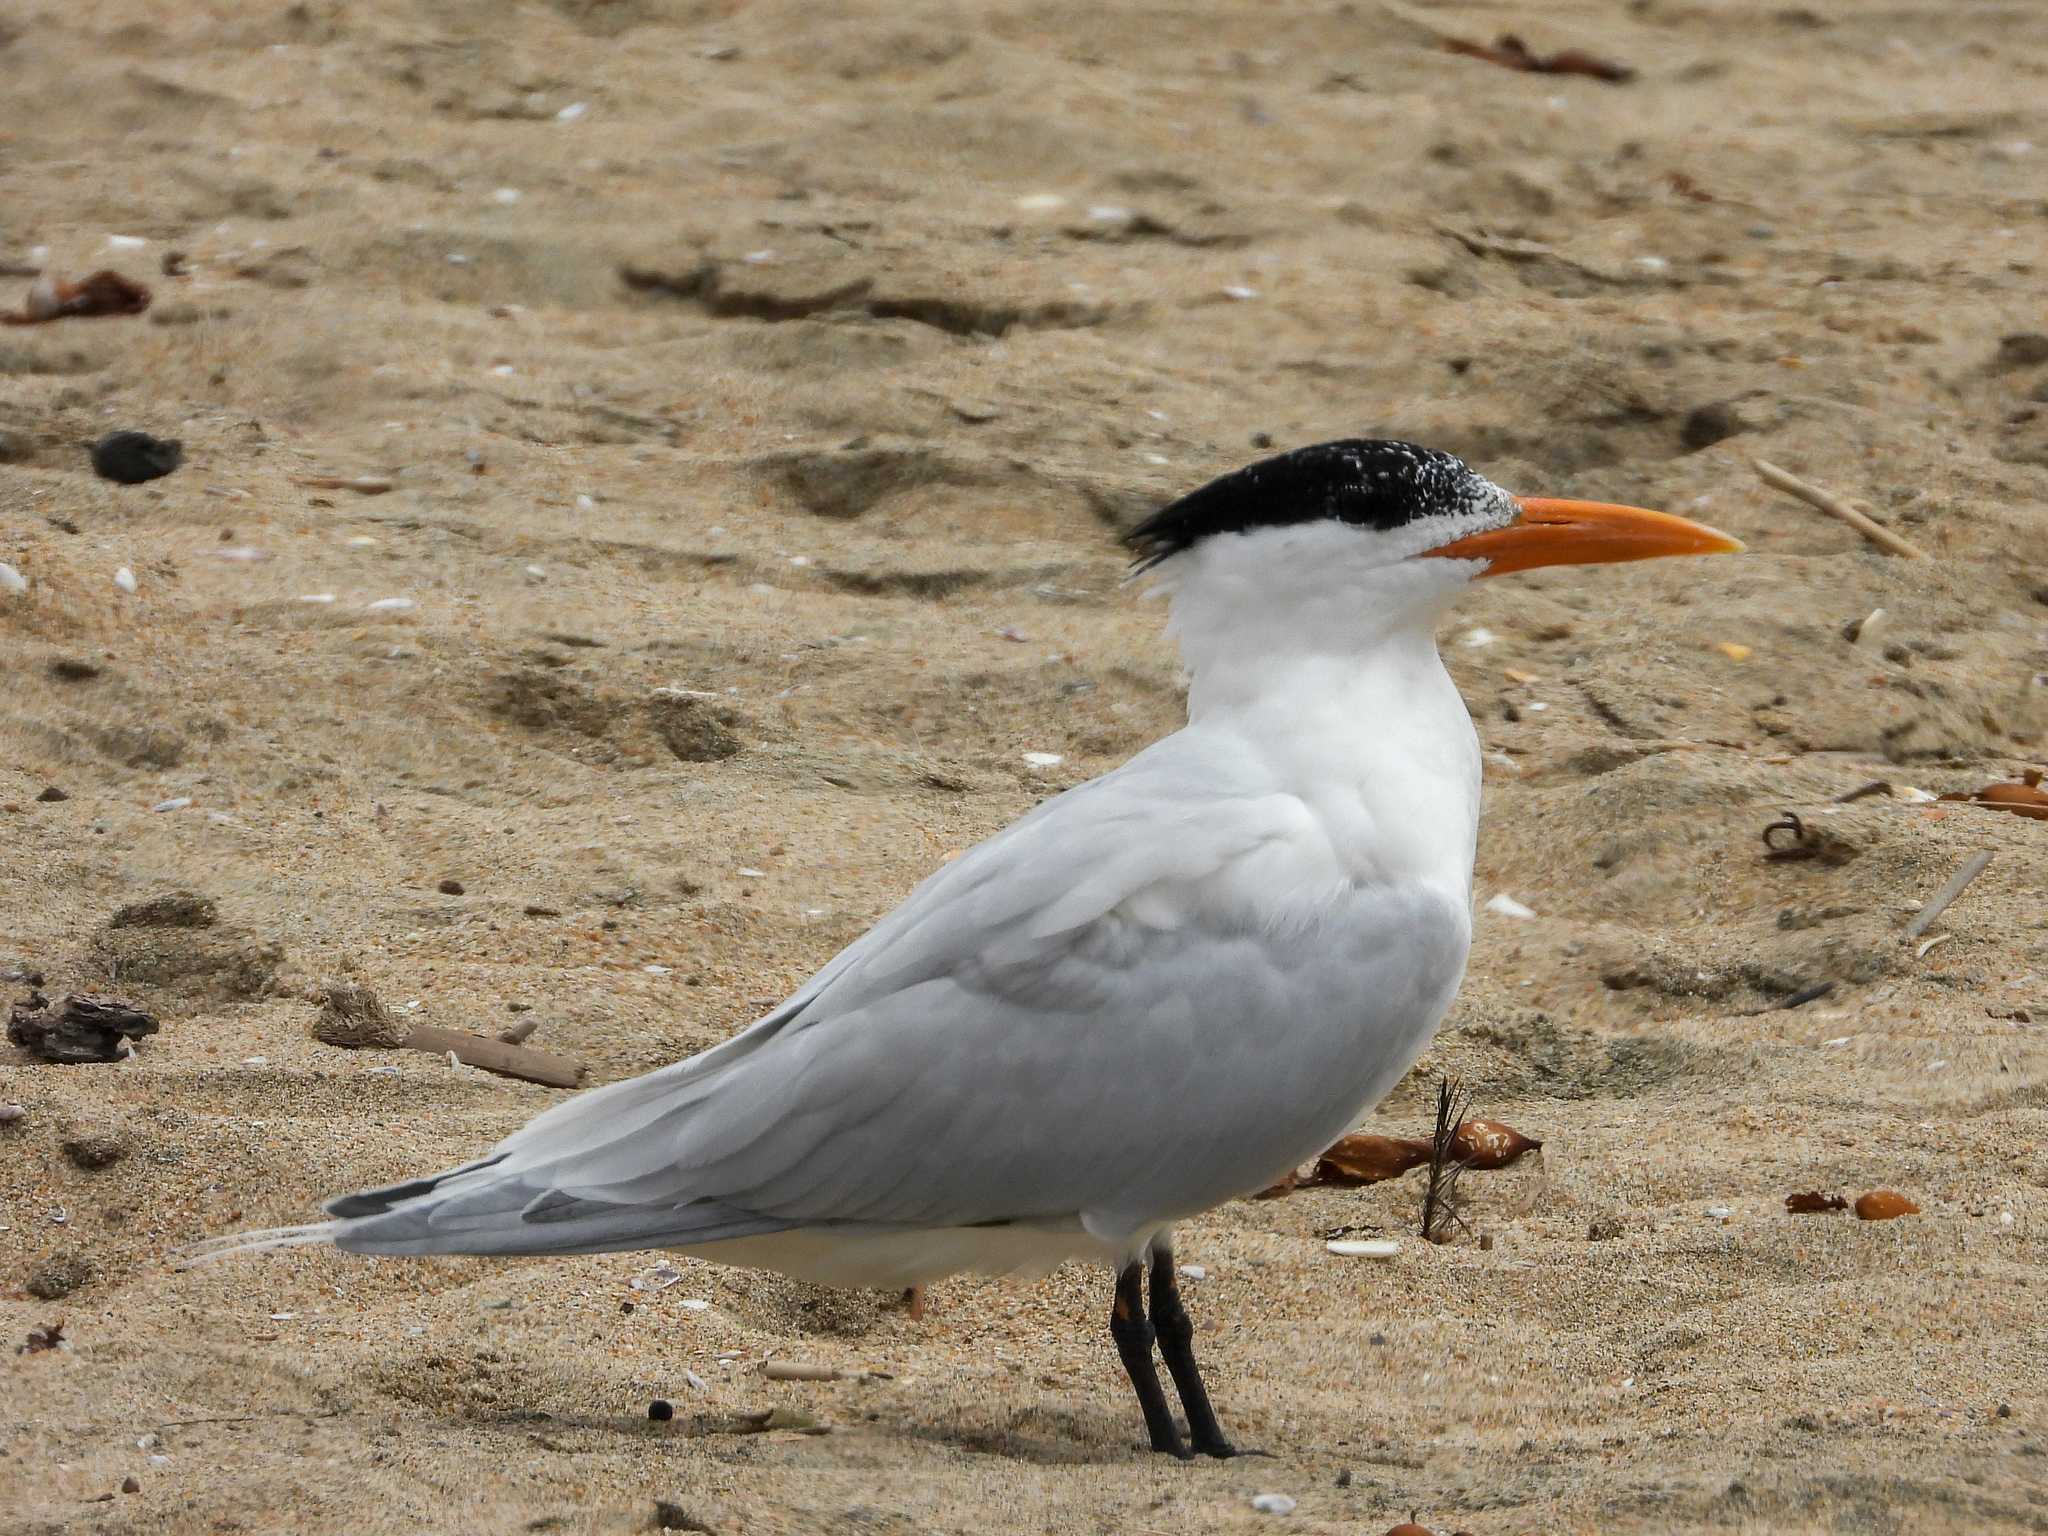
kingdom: Animalia
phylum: Chordata
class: Aves
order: Charadriiformes
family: Laridae
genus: Thalasseus
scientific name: Thalasseus maximus
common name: Royal tern
